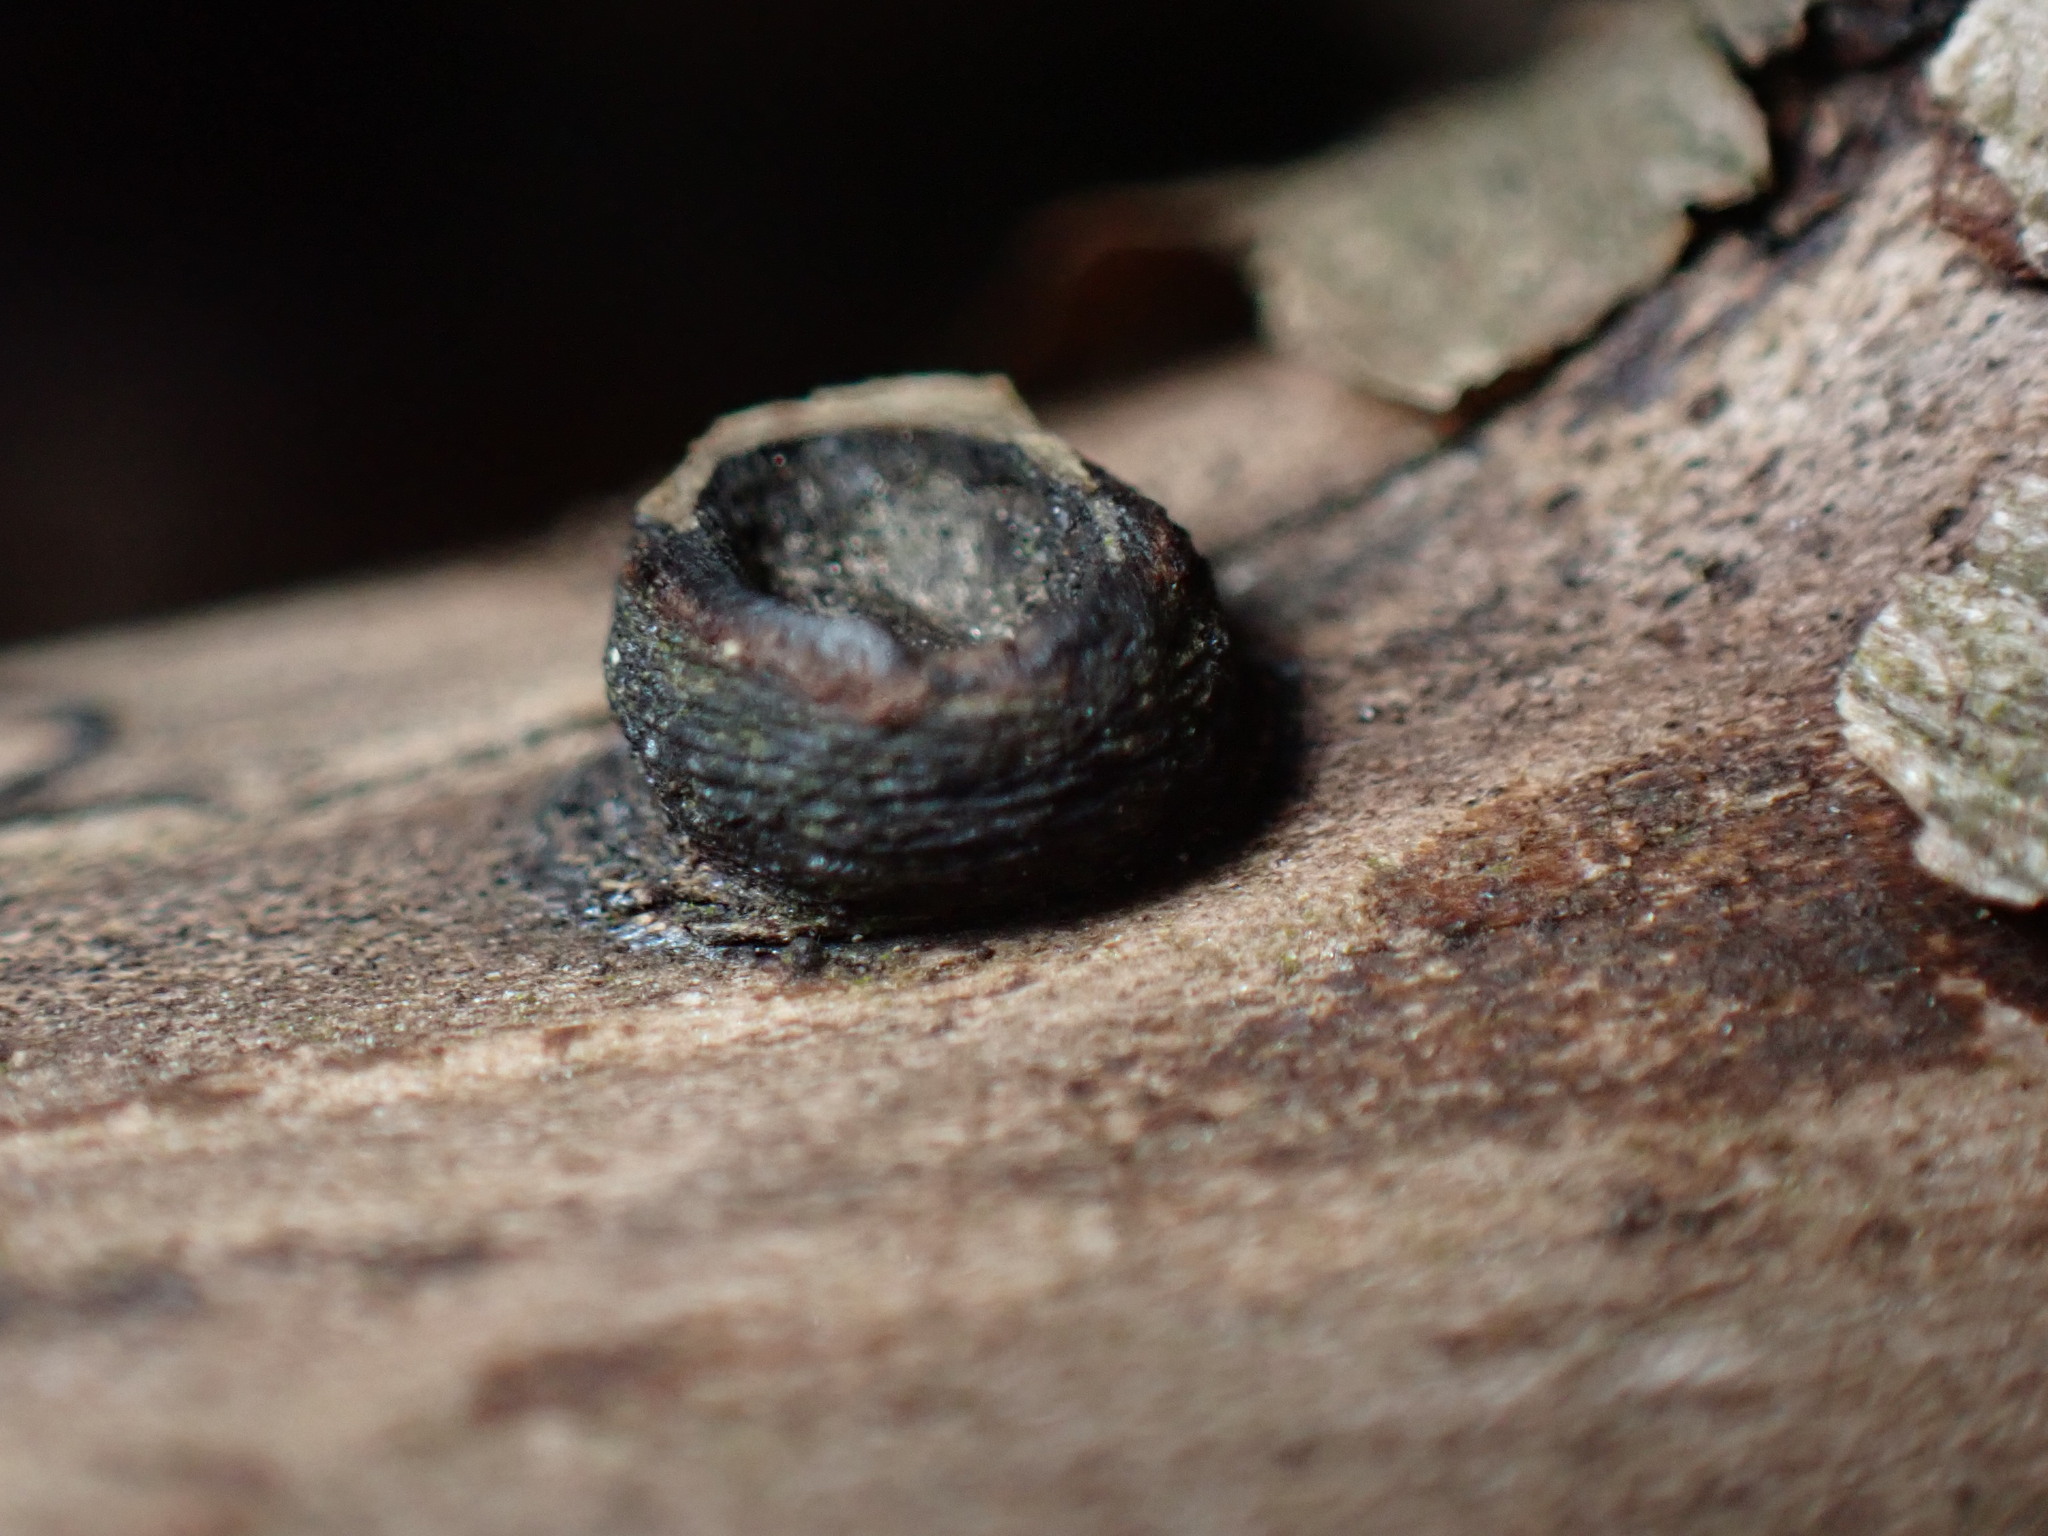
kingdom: Fungi
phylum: Ascomycota
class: Sordariomycetes
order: Xylariales
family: Graphostromataceae
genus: Biscogniauxia
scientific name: Biscogniauxia marginata
